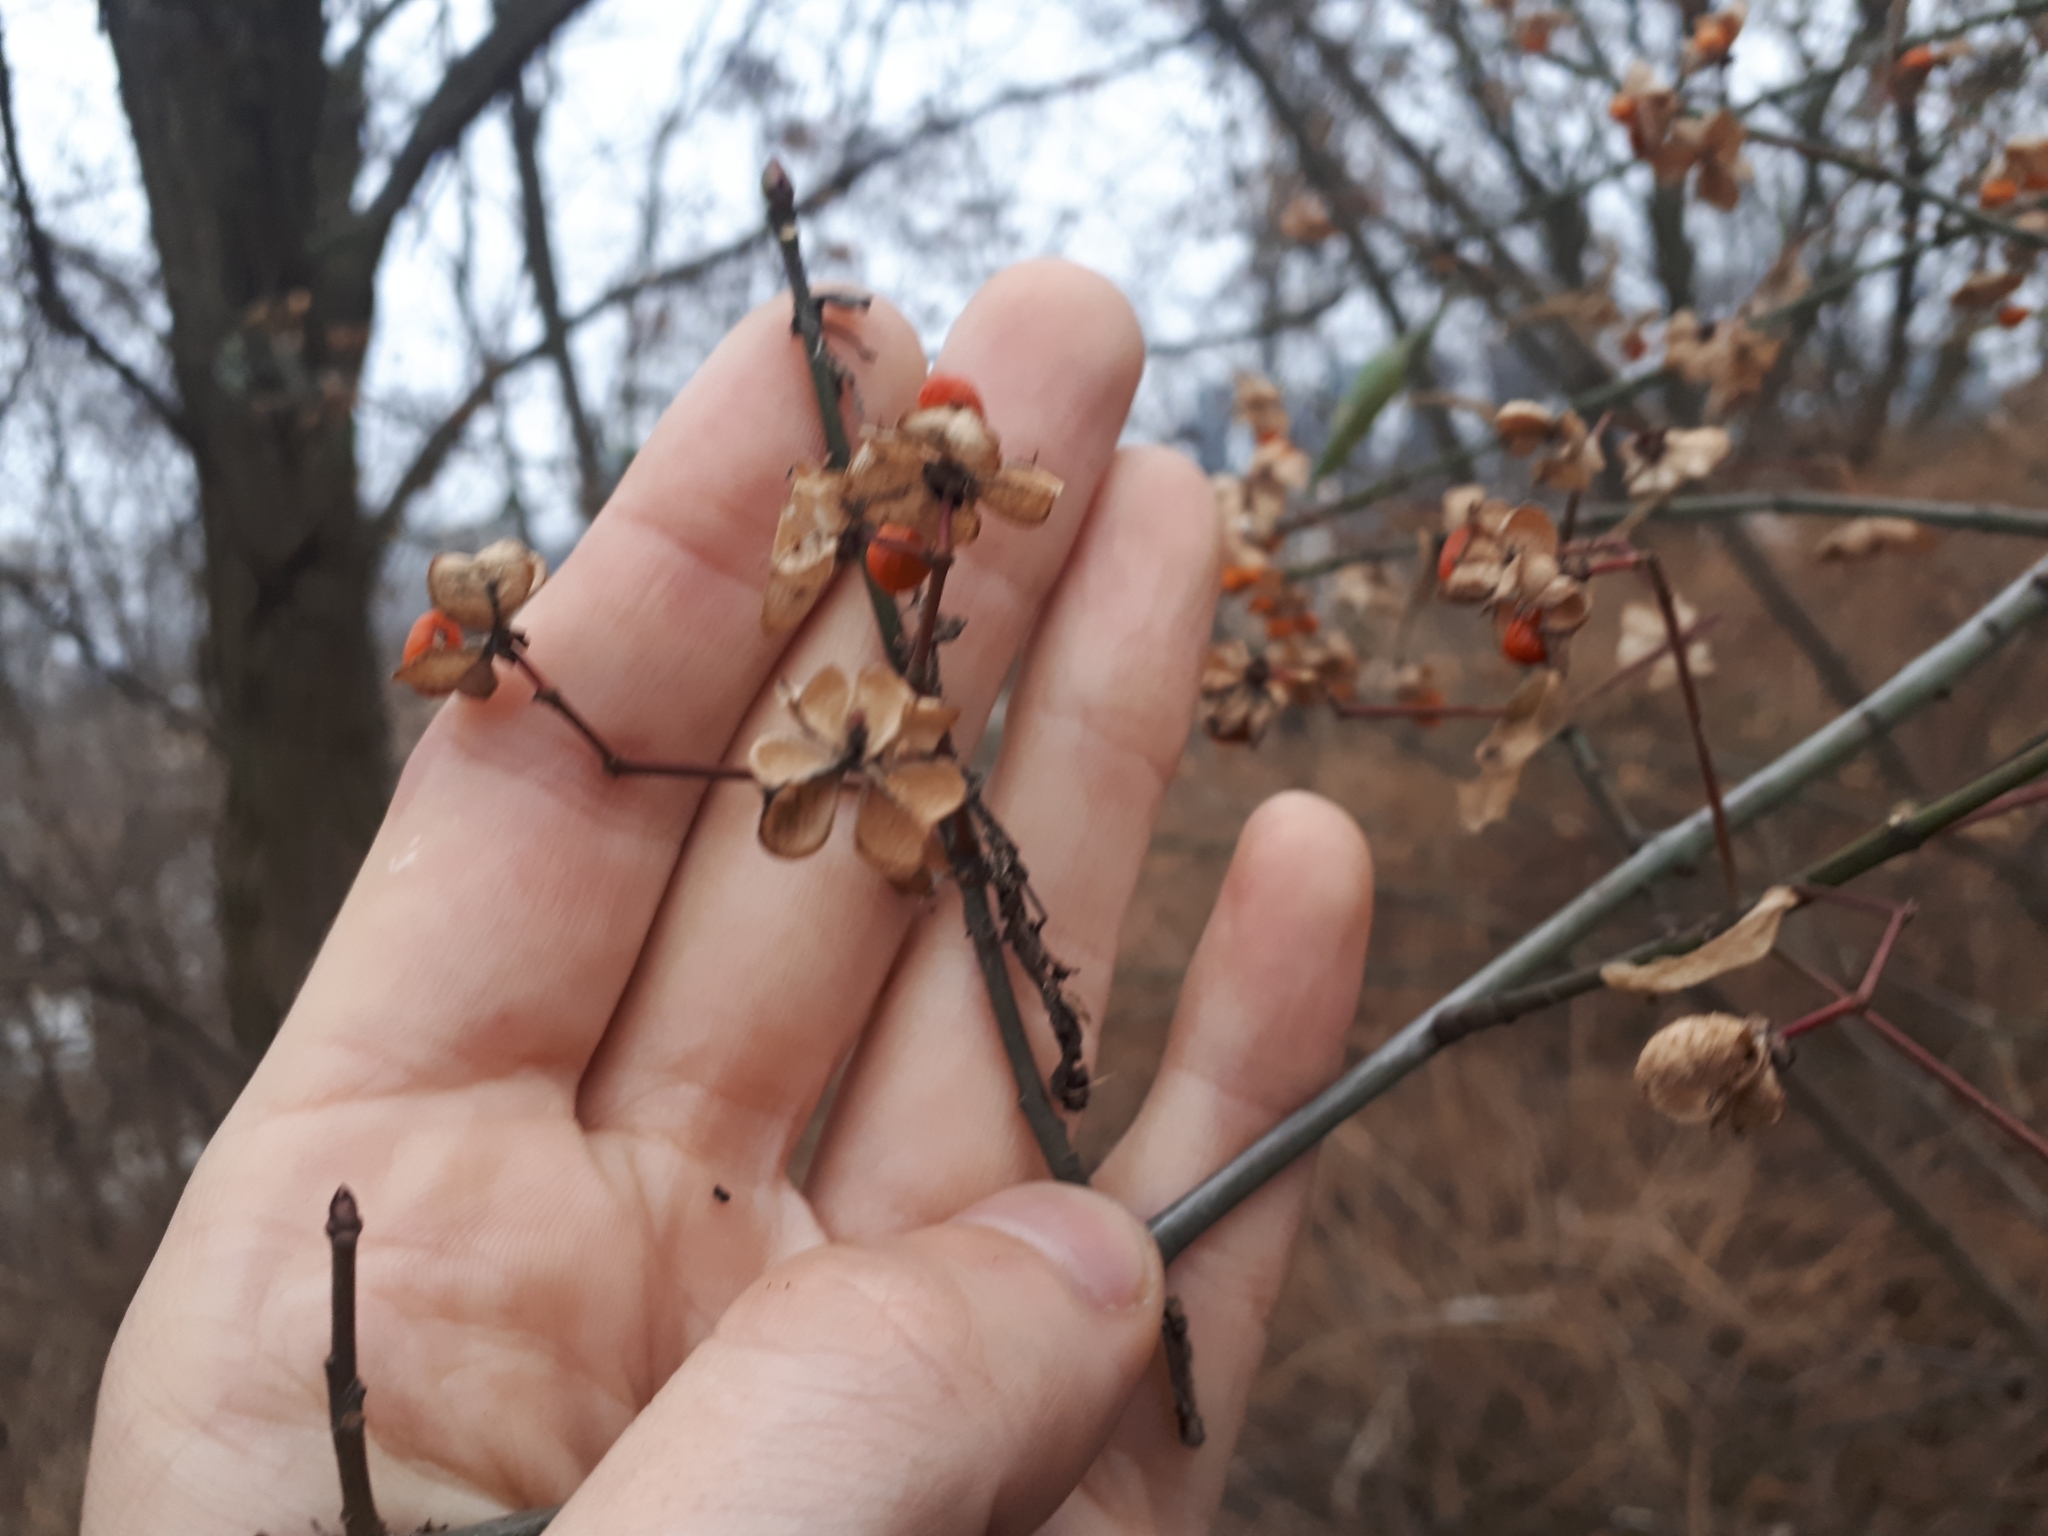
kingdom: Plantae
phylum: Tracheophyta
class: Magnoliopsida
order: Celastrales
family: Celastraceae
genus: Euonymus
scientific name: Euonymus europaeus
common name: Spindle
